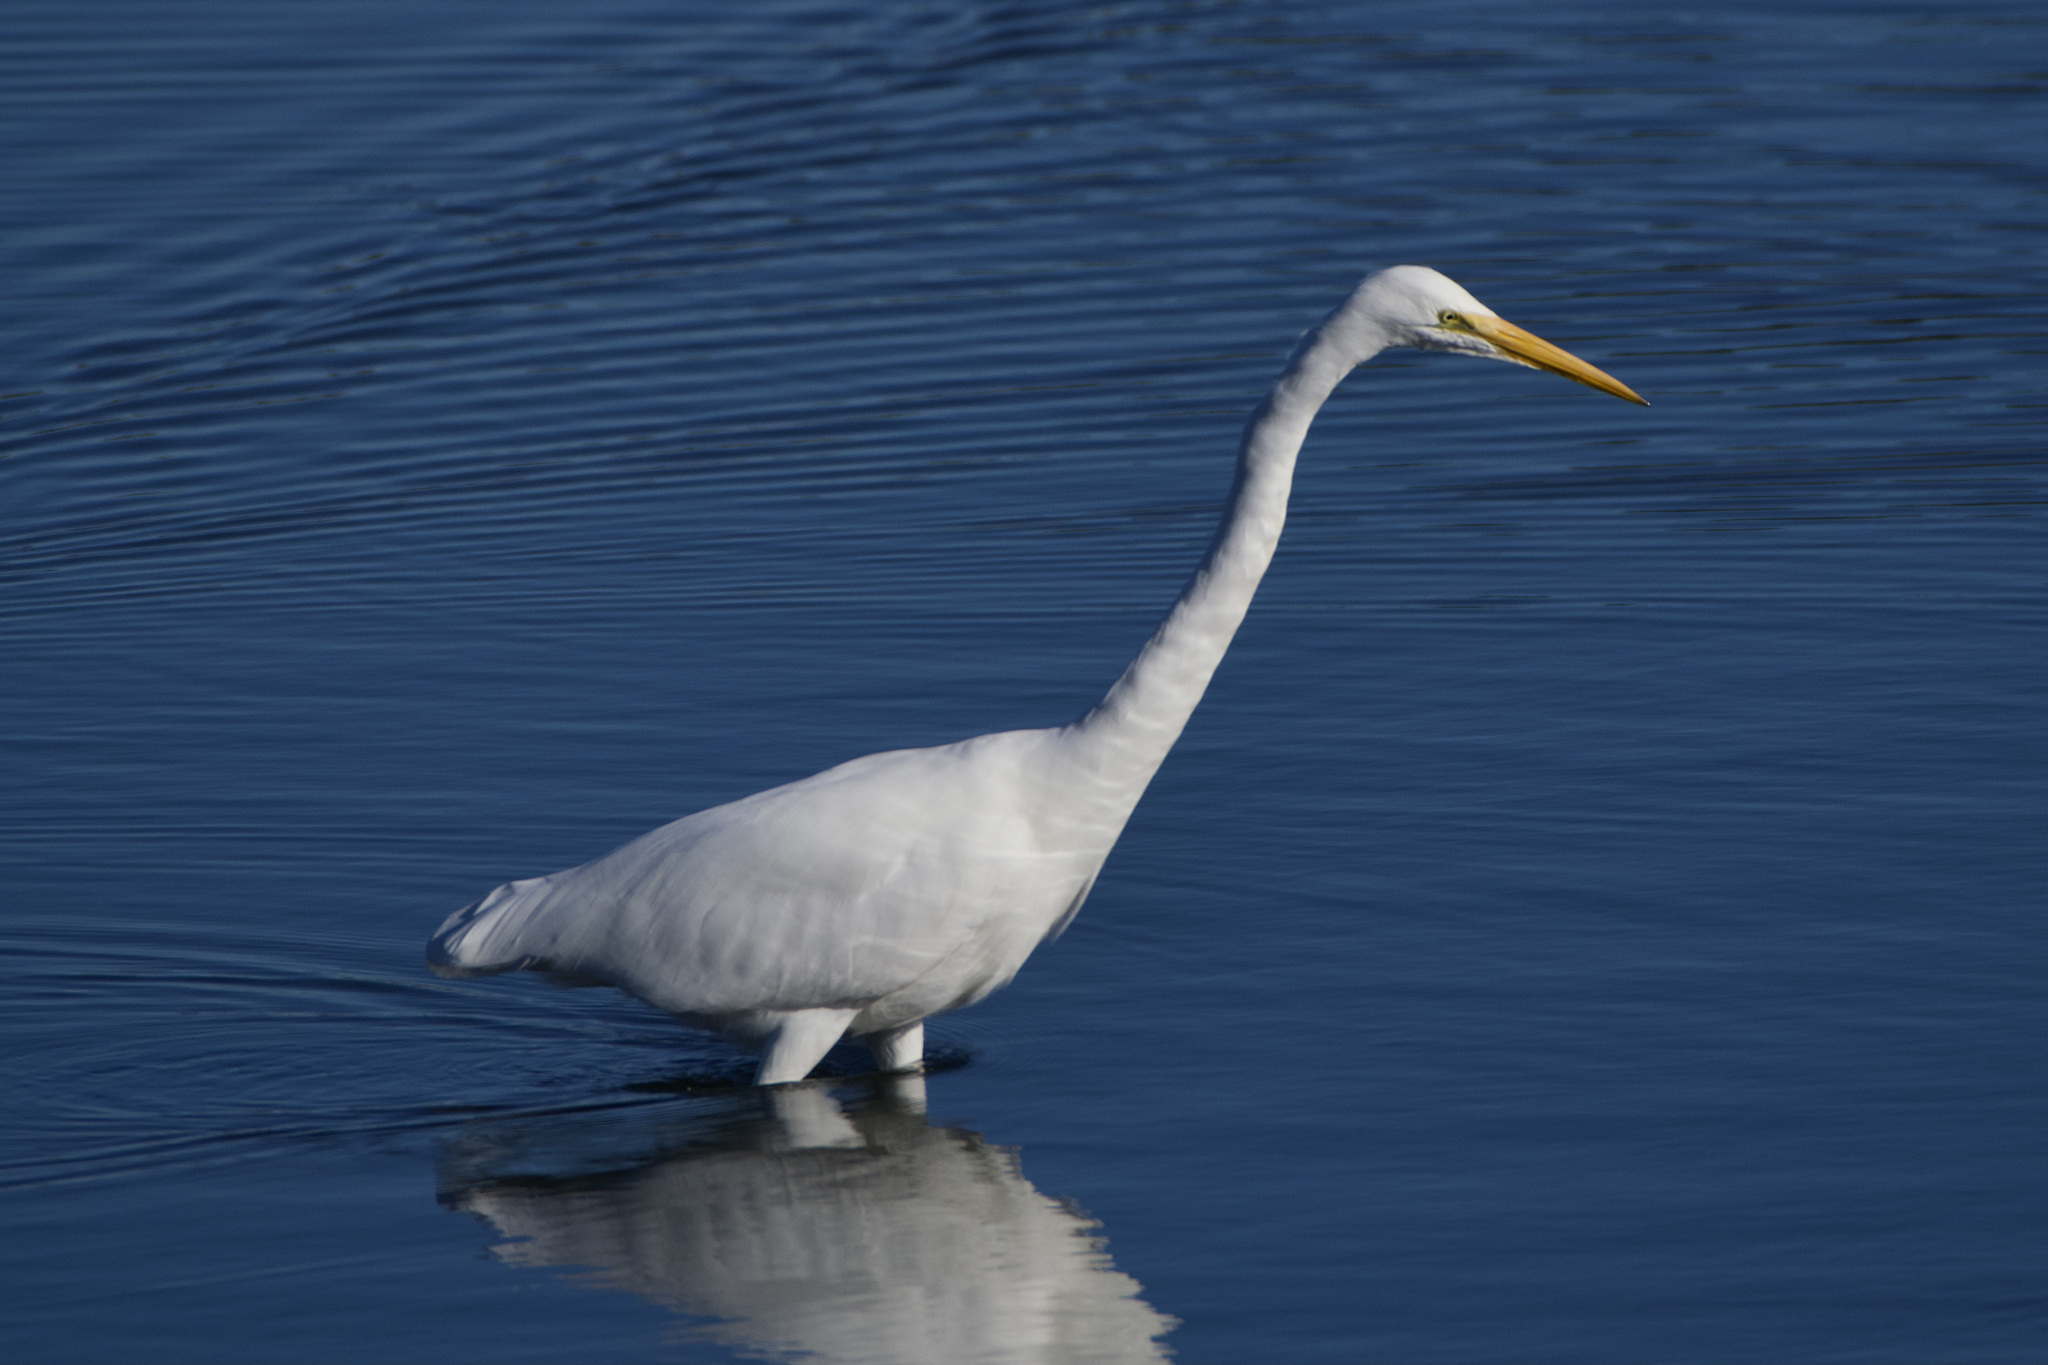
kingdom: Animalia
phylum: Chordata
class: Aves
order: Pelecaniformes
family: Ardeidae
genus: Ardea
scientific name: Ardea alba
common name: Great egret
